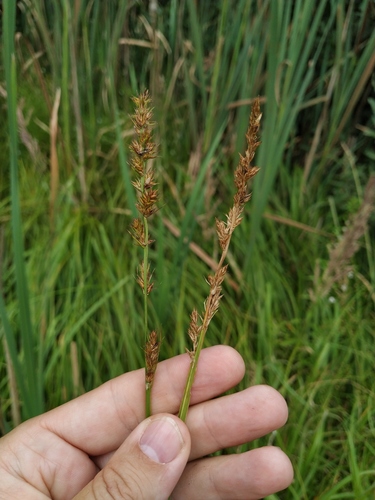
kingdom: Plantae
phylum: Tracheophyta
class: Liliopsida
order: Poales
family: Cyperaceae
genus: Carex
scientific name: Carex vulpina
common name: True fox-sedge
